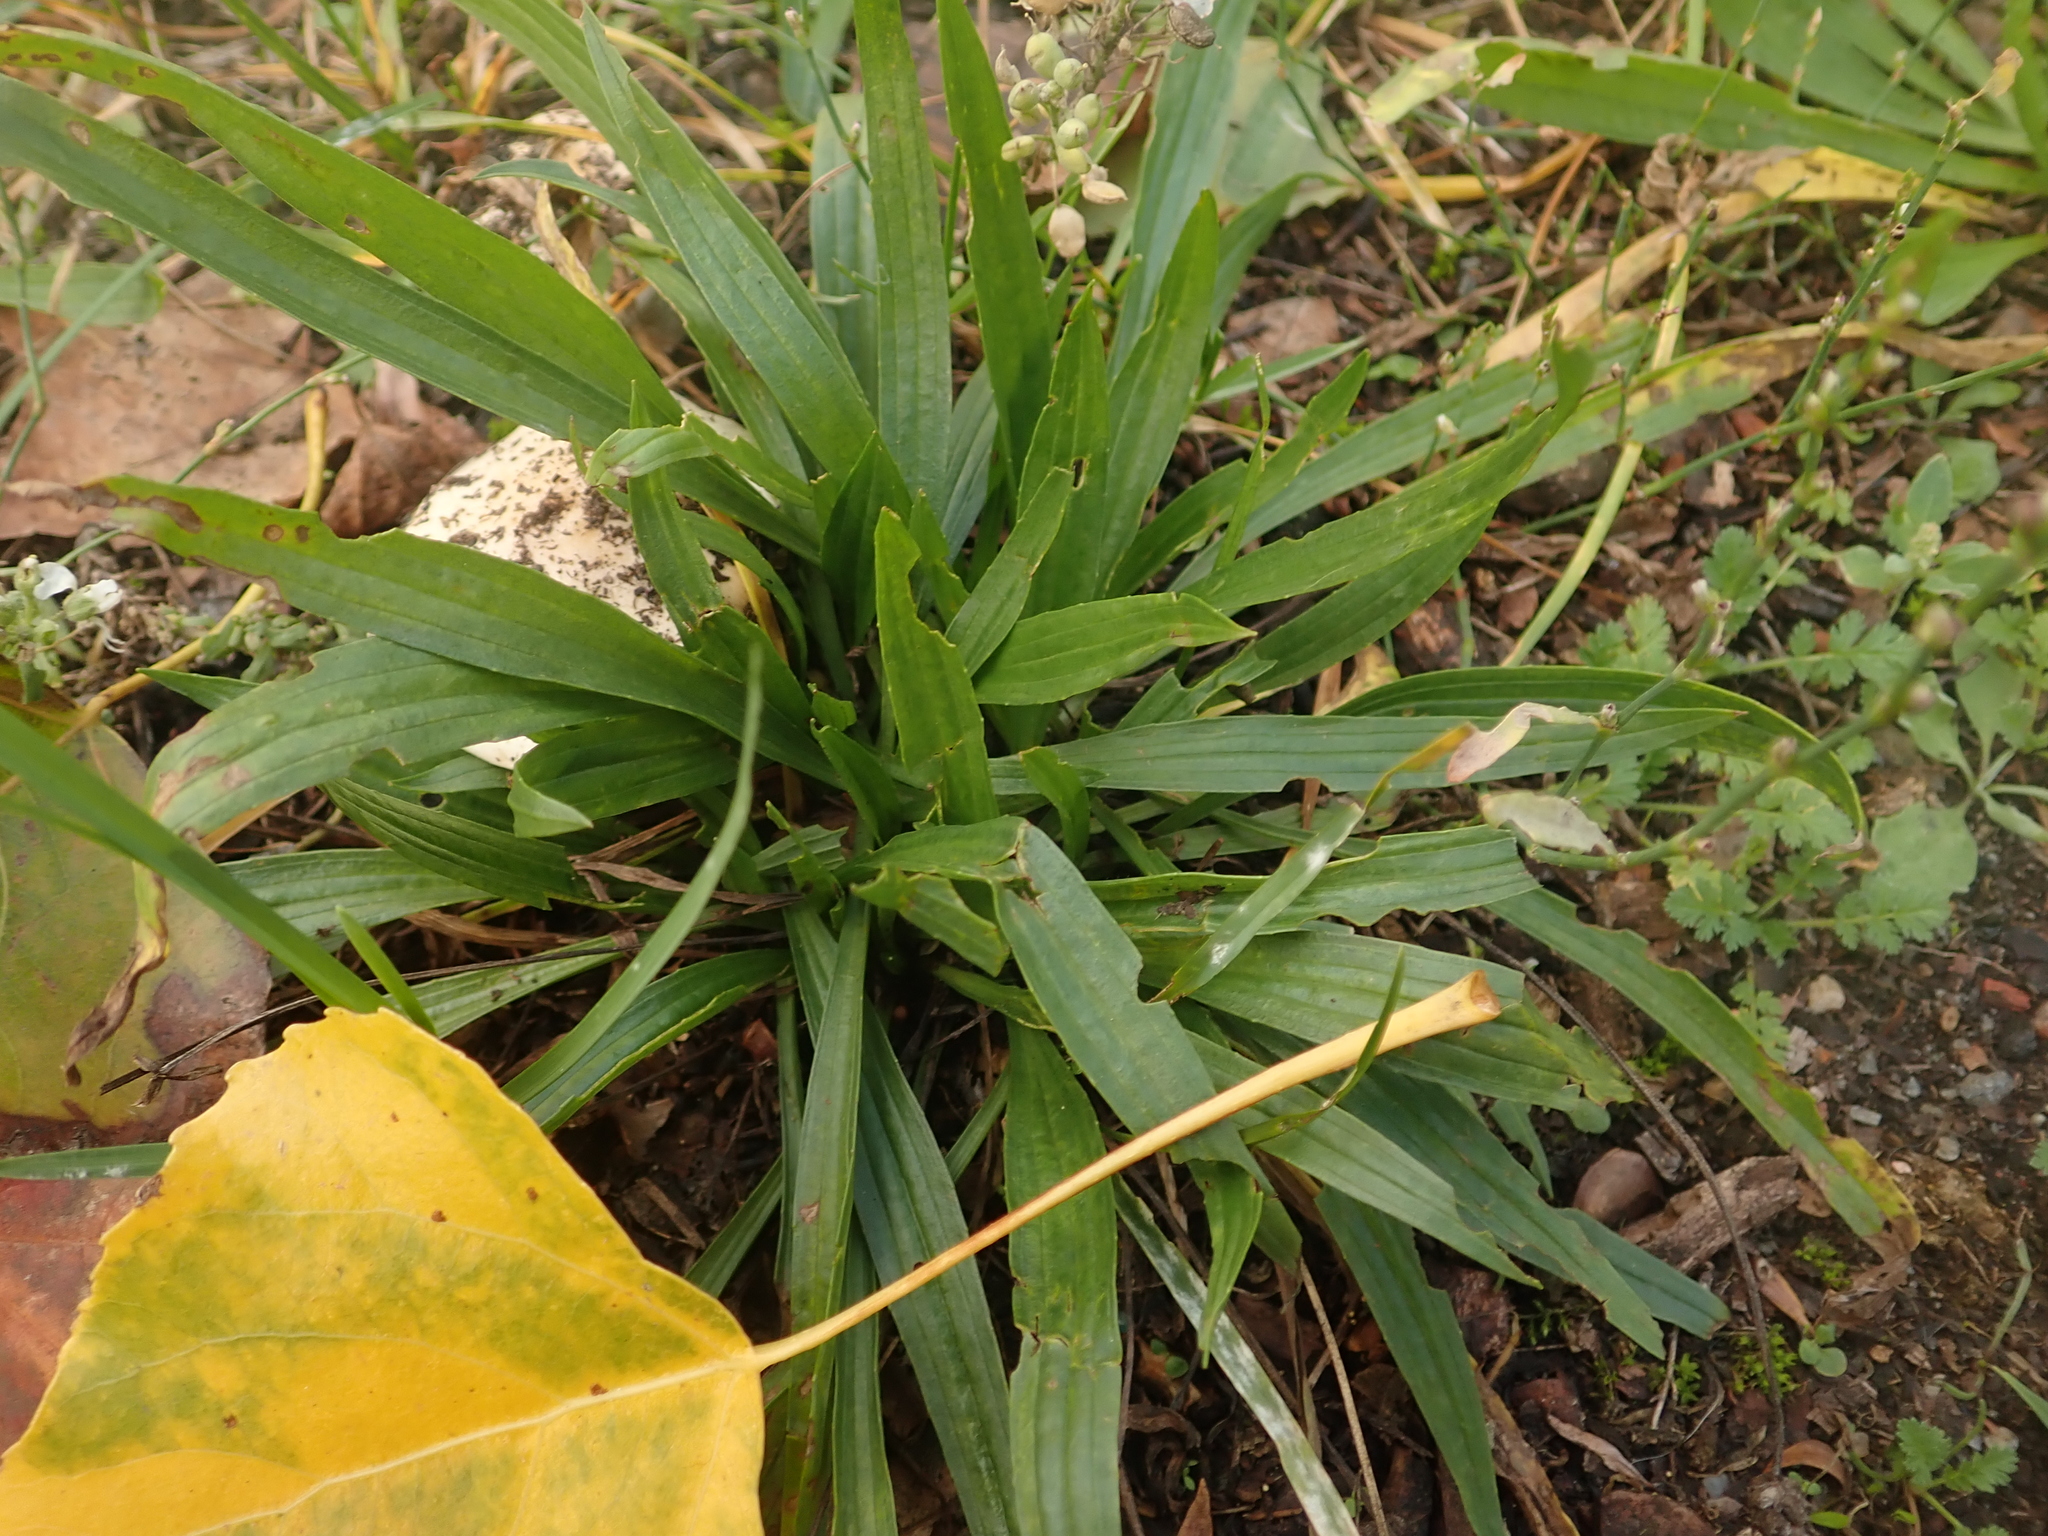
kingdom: Plantae
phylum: Tracheophyta
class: Magnoliopsida
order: Lamiales
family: Plantaginaceae
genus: Plantago
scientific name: Plantago lanceolata
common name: Ribwort plantain
